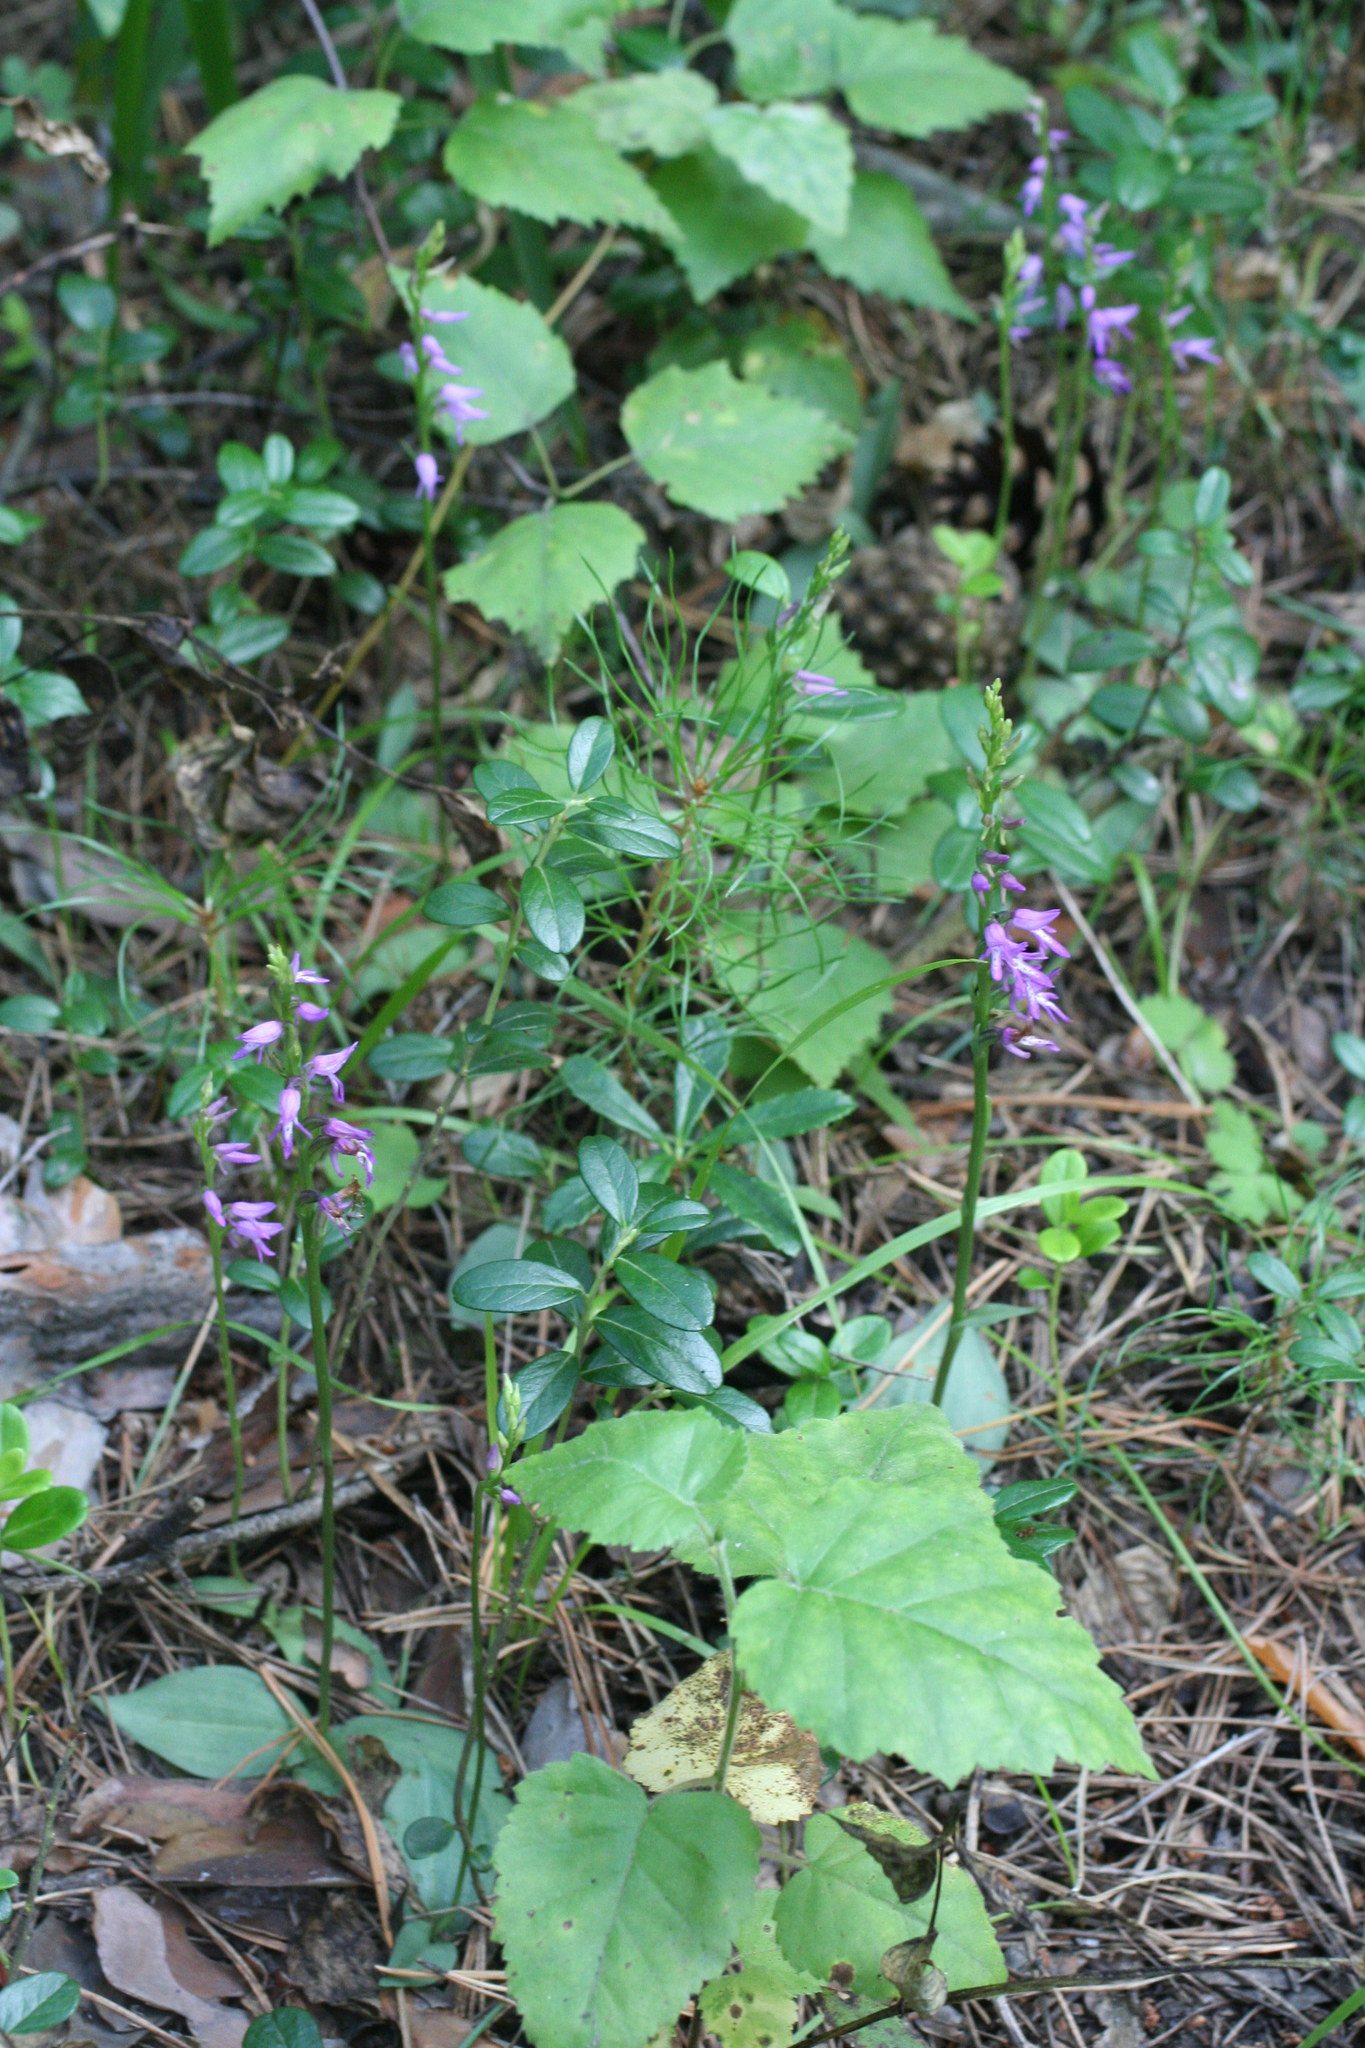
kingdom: Plantae
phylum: Tracheophyta
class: Liliopsida
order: Asparagales
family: Orchidaceae
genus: Hemipilia
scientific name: Hemipilia cucullata
